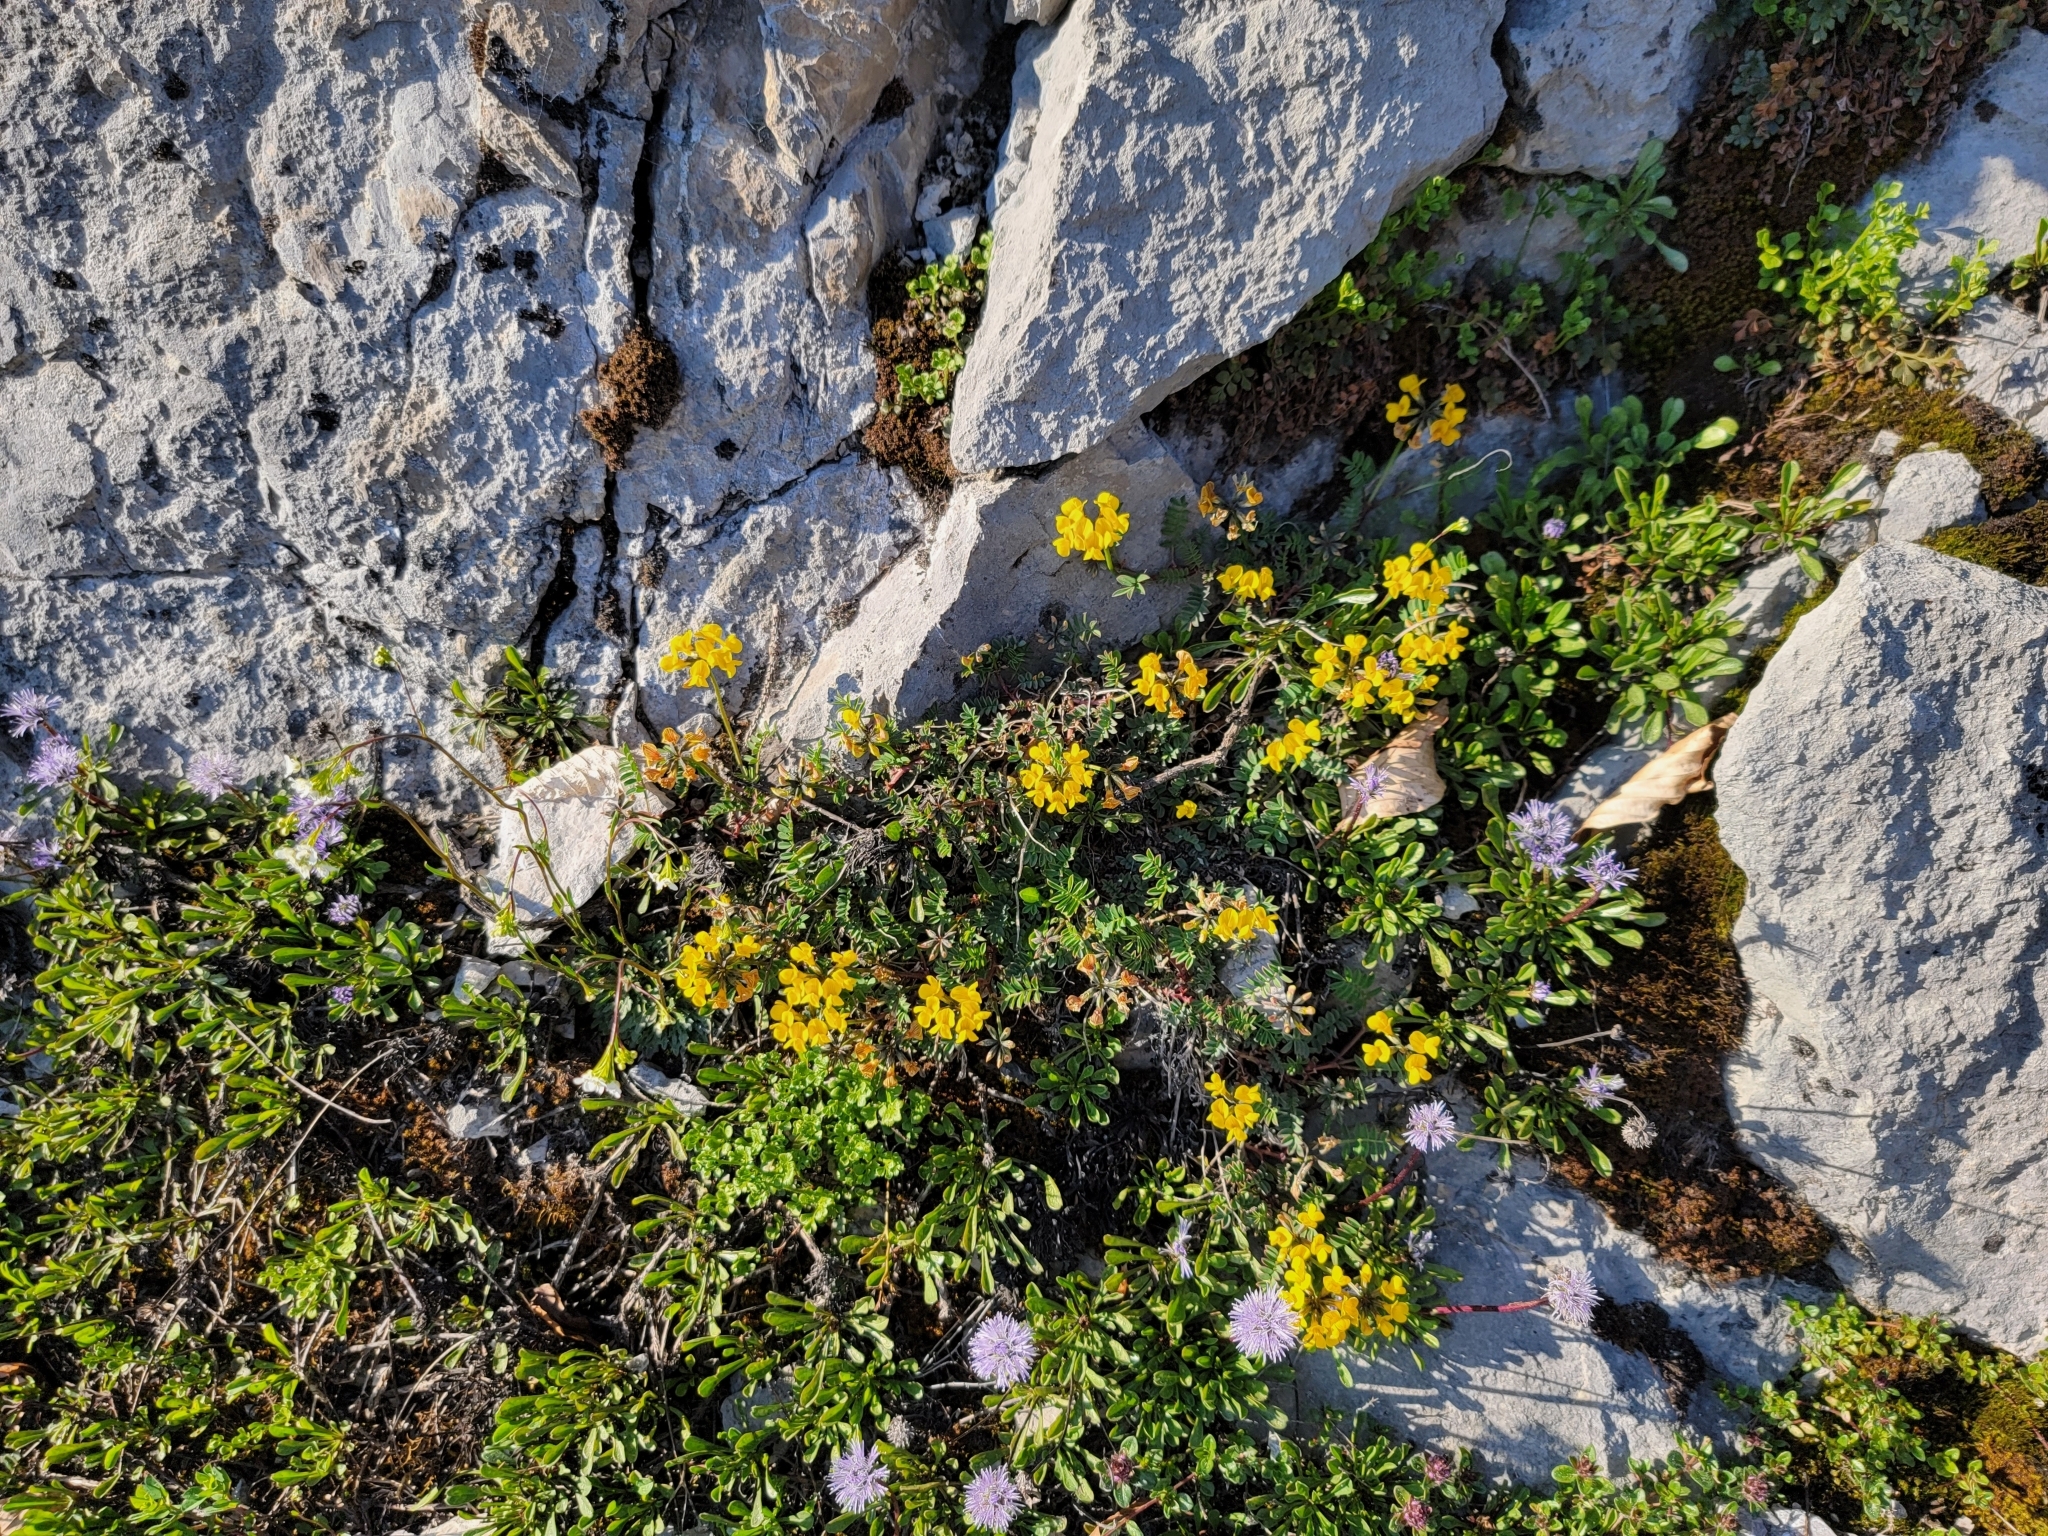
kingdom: Plantae
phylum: Tracheophyta
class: Magnoliopsida
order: Fabales
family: Fabaceae
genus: Hippocrepis
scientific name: Hippocrepis comosa
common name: Horseshoe vetch
